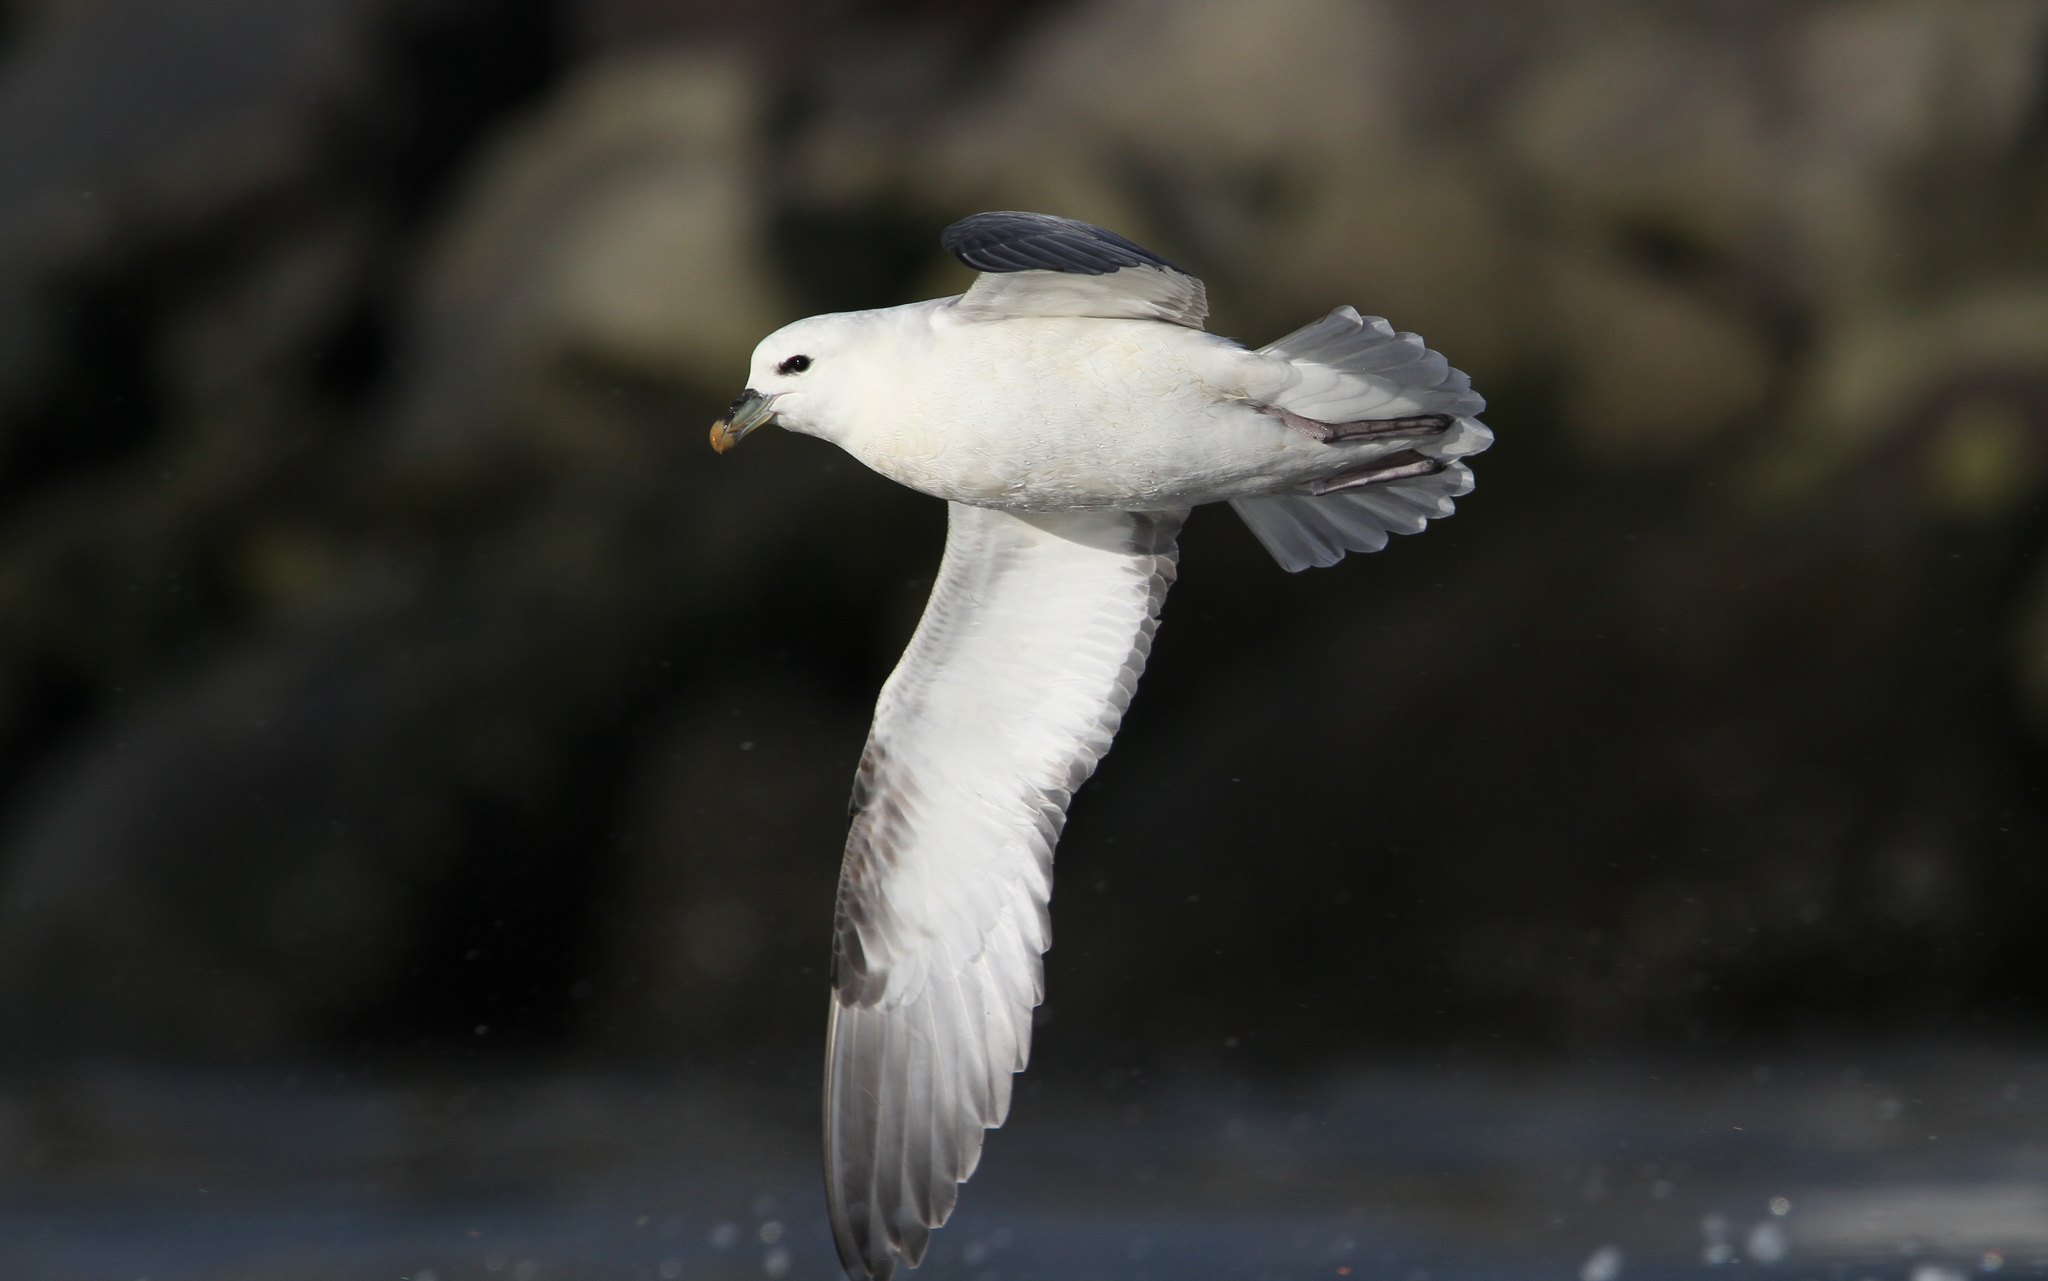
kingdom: Animalia
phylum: Chordata
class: Aves
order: Procellariiformes
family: Procellariidae
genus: Fulmarus
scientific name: Fulmarus glacialis
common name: Northern fulmar
